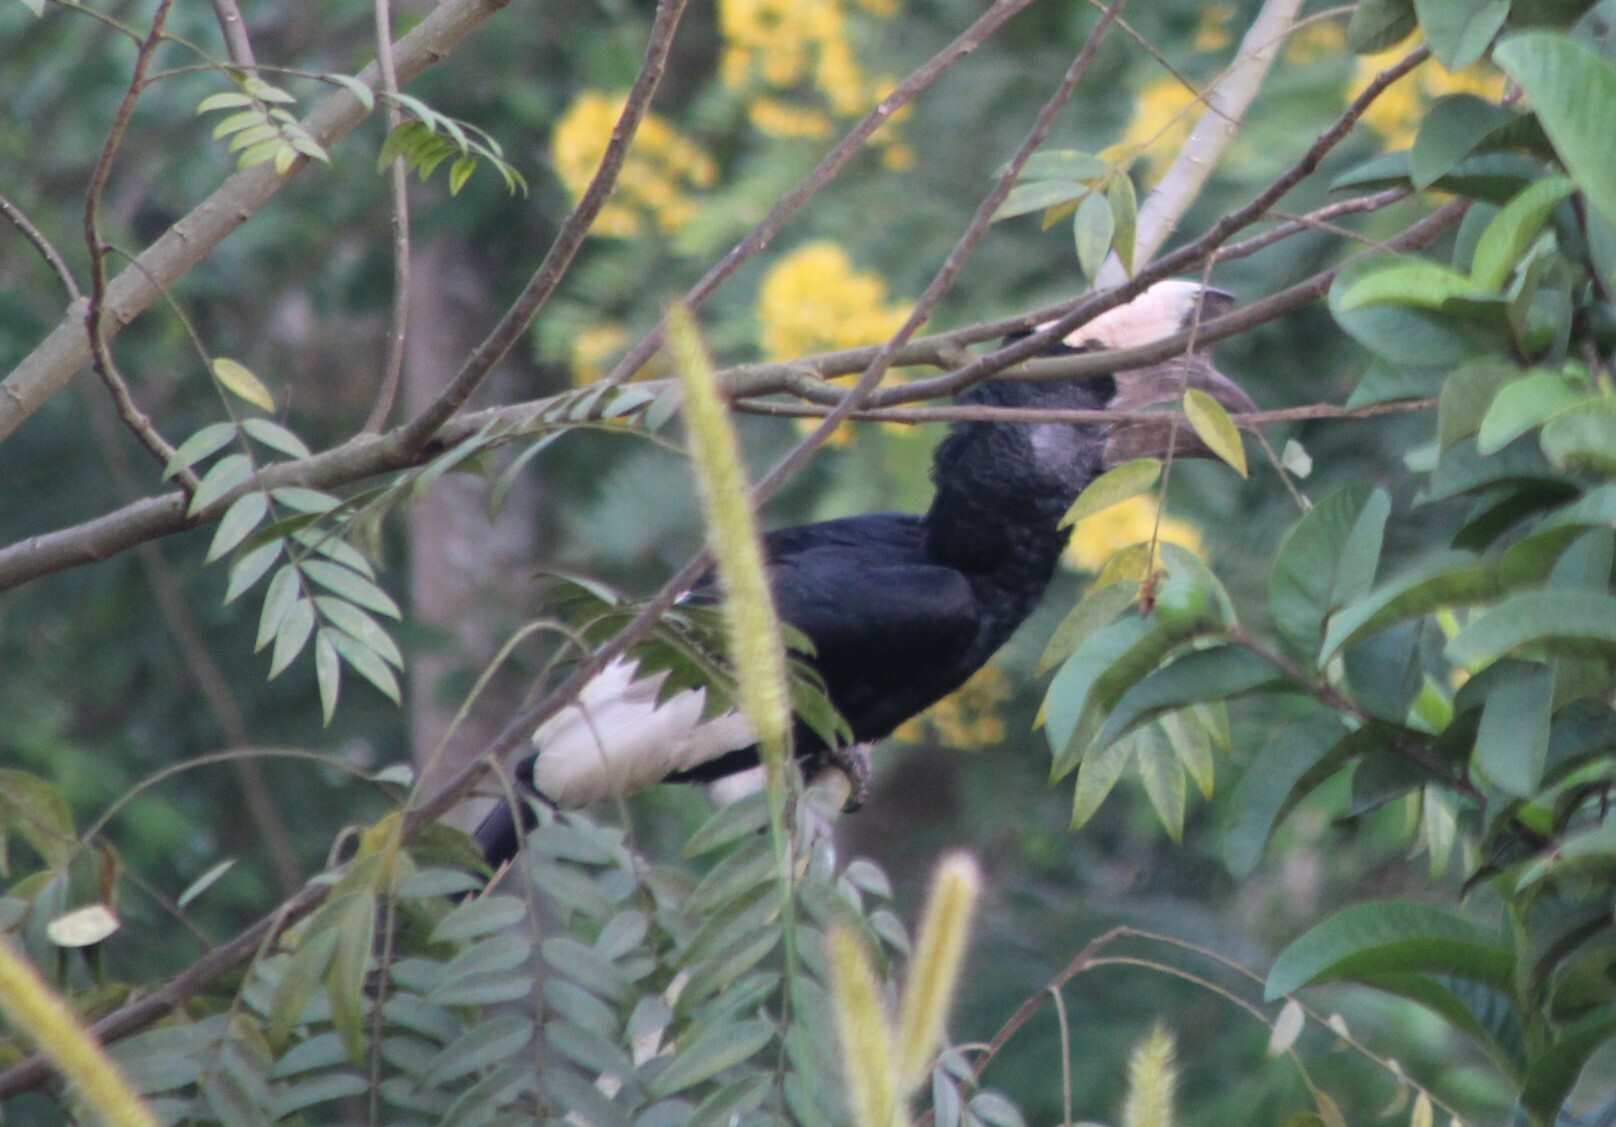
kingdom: Animalia
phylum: Chordata
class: Aves
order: Bucerotiformes
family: Bucerotidae
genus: Bycanistes
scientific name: Bycanistes subcylindricus
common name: Black-and-white-casqued hornbill
